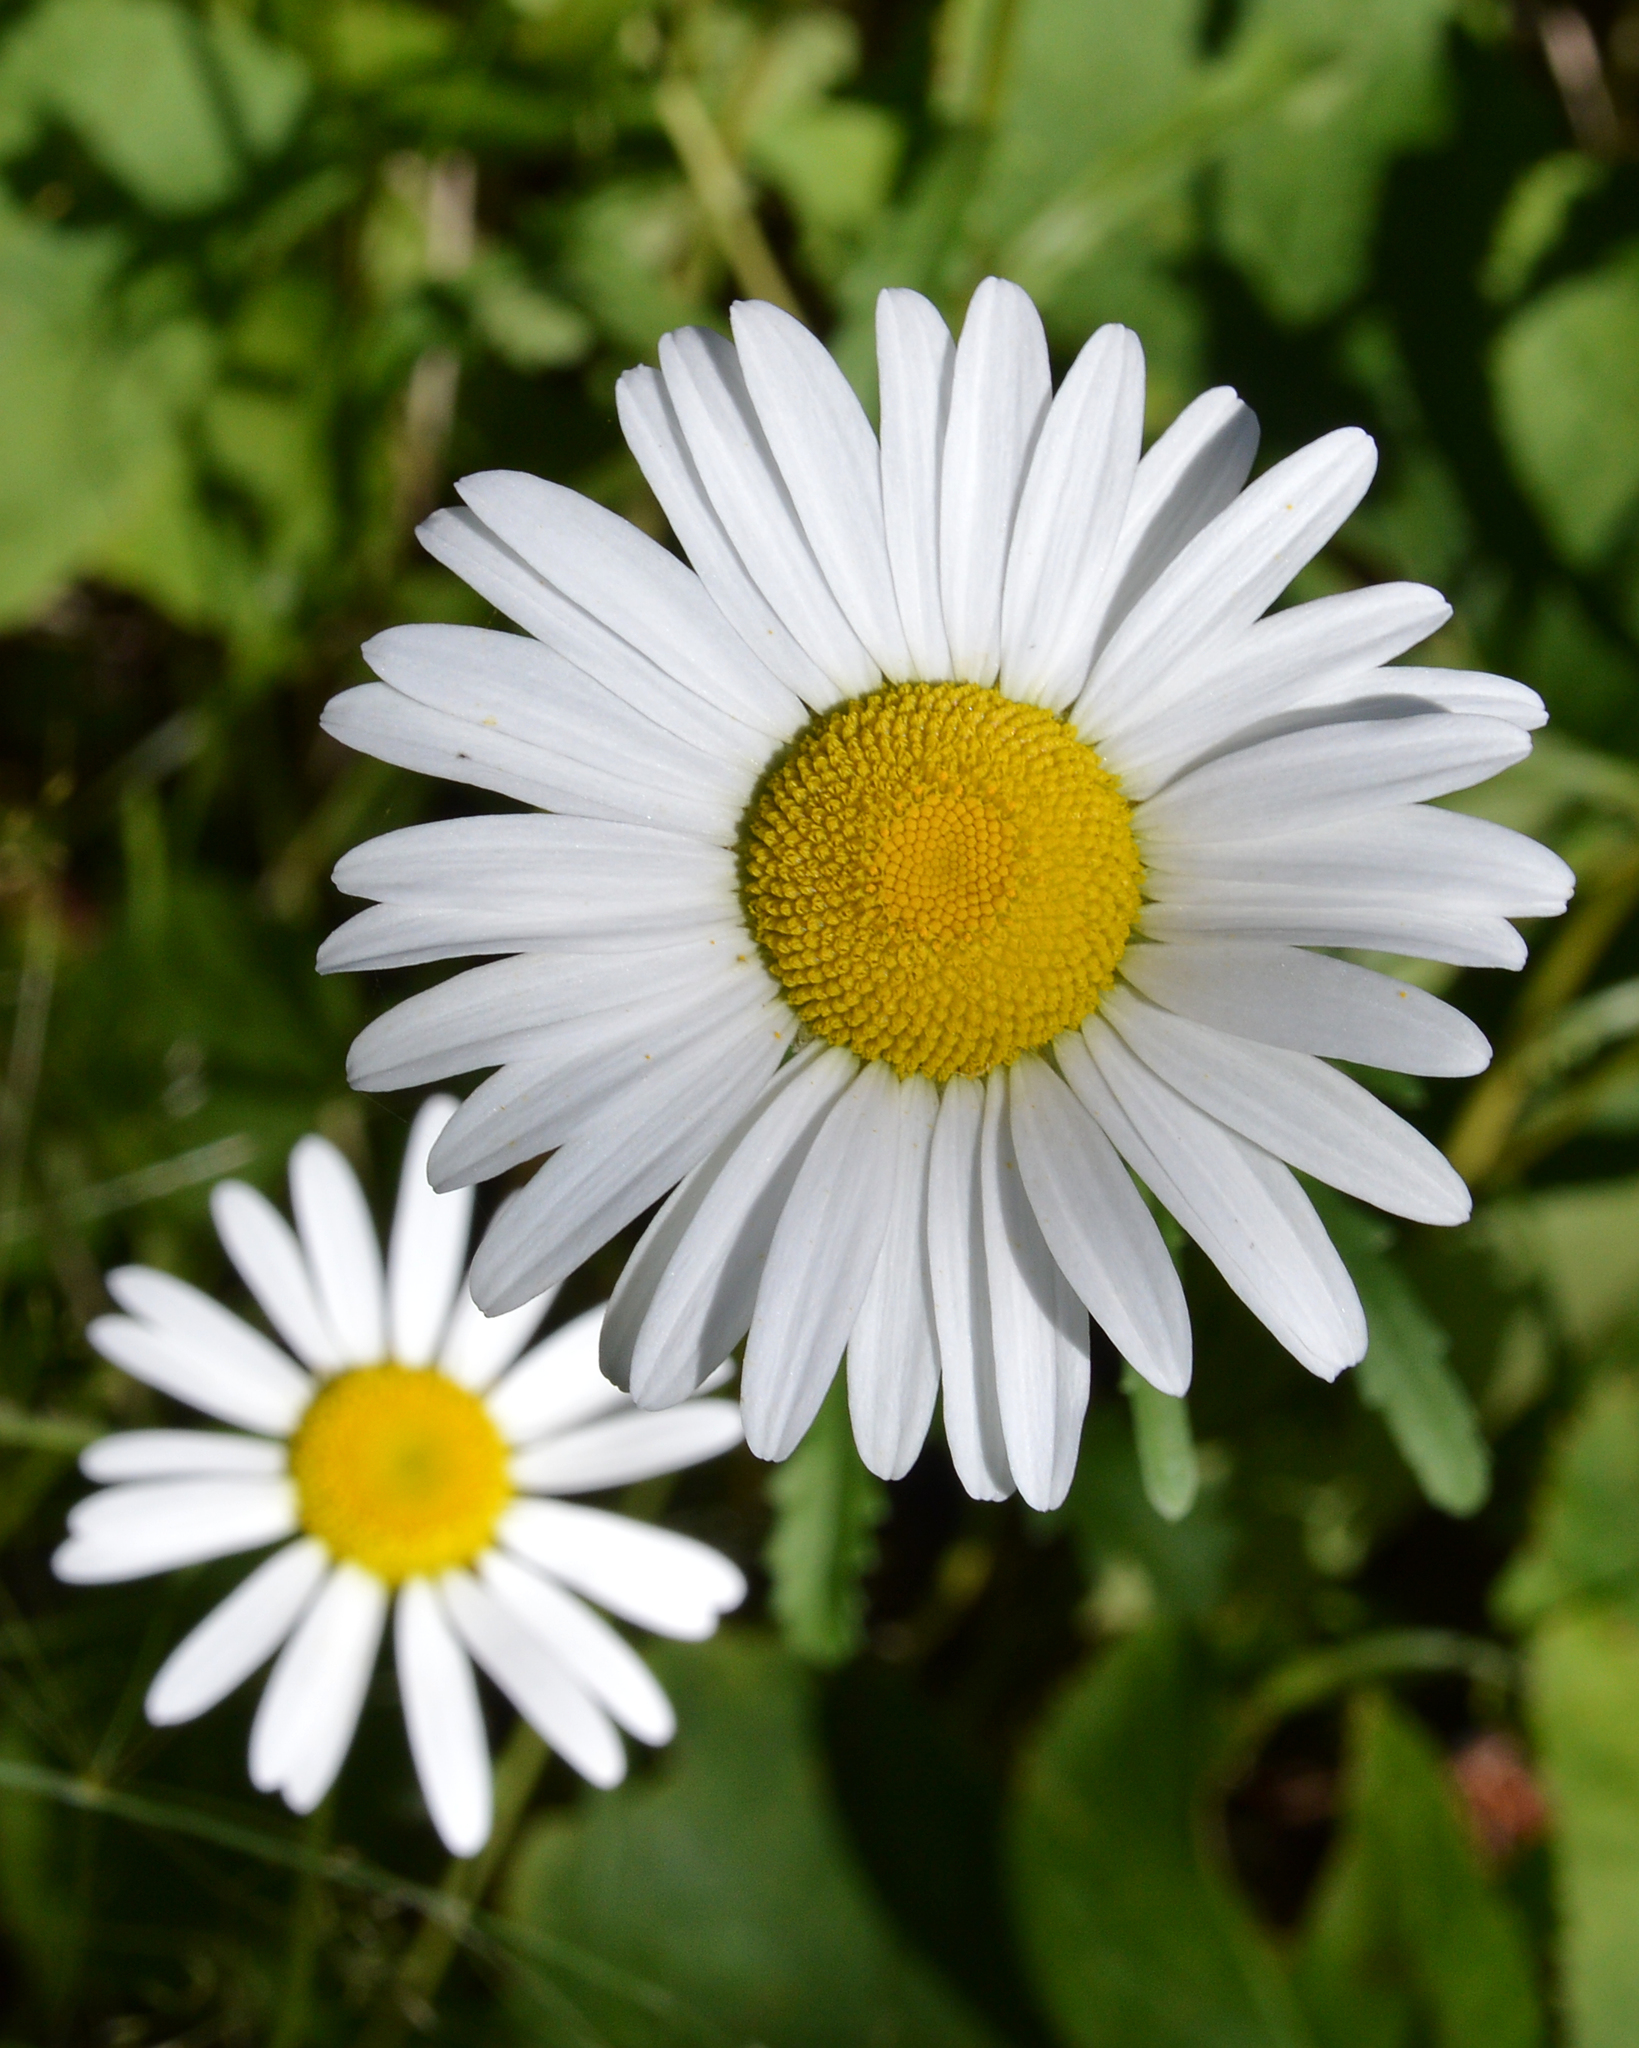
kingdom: Plantae
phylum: Tracheophyta
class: Magnoliopsida
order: Asterales
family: Asteraceae
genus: Leucanthemum
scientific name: Leucanthemum vulgare
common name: Oxeye daisy
